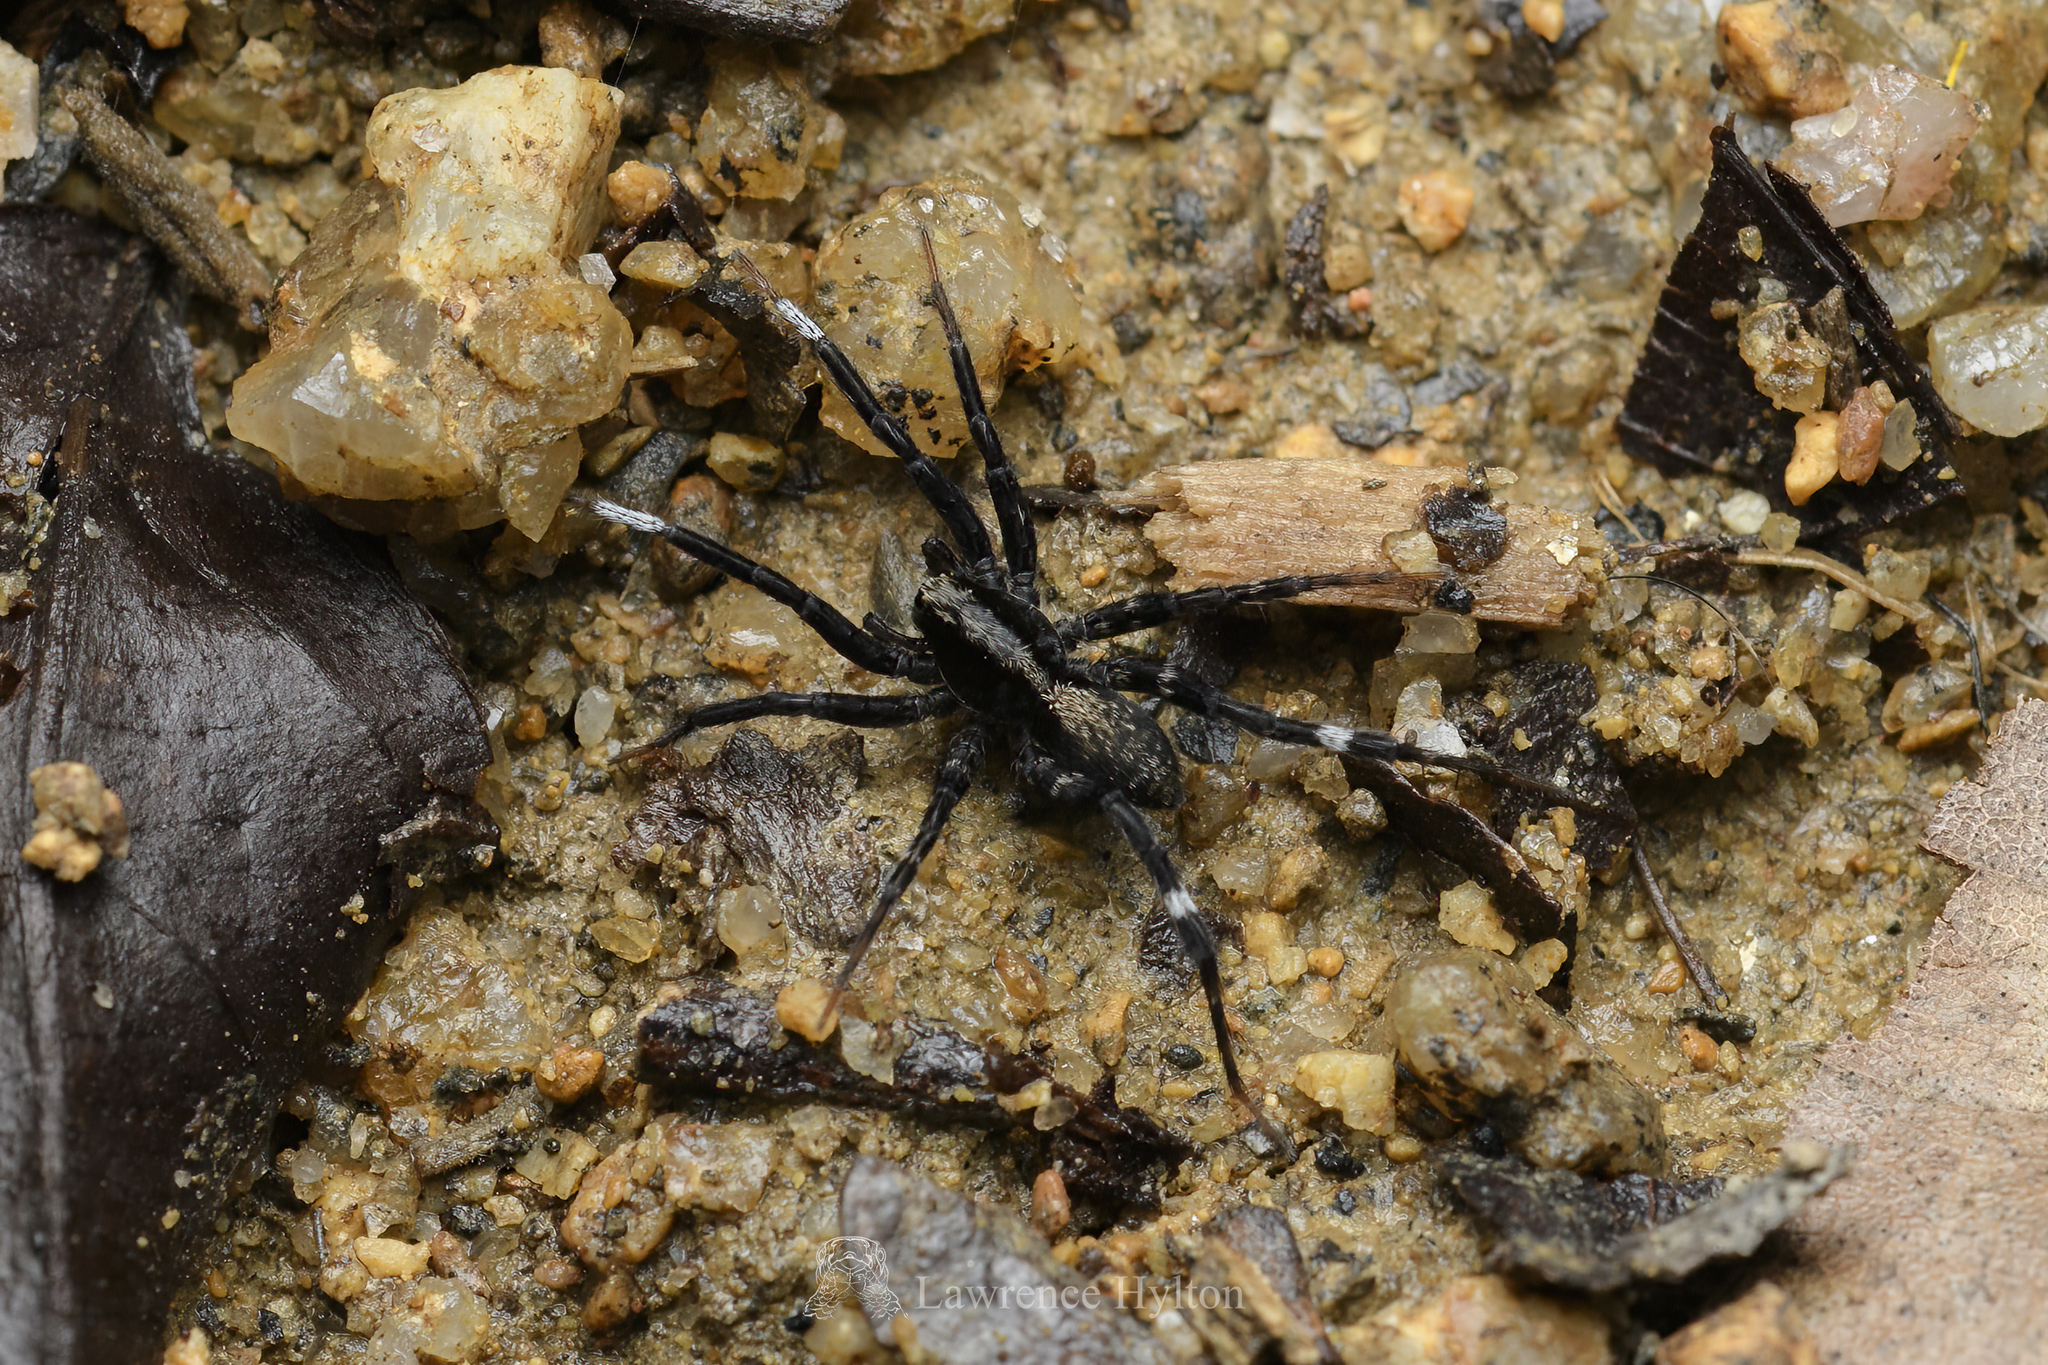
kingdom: Animalia
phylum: Arthropoda
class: Arachnida
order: Araneae
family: Lycosidae
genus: Trochosa
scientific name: Trochosa bannaensis
